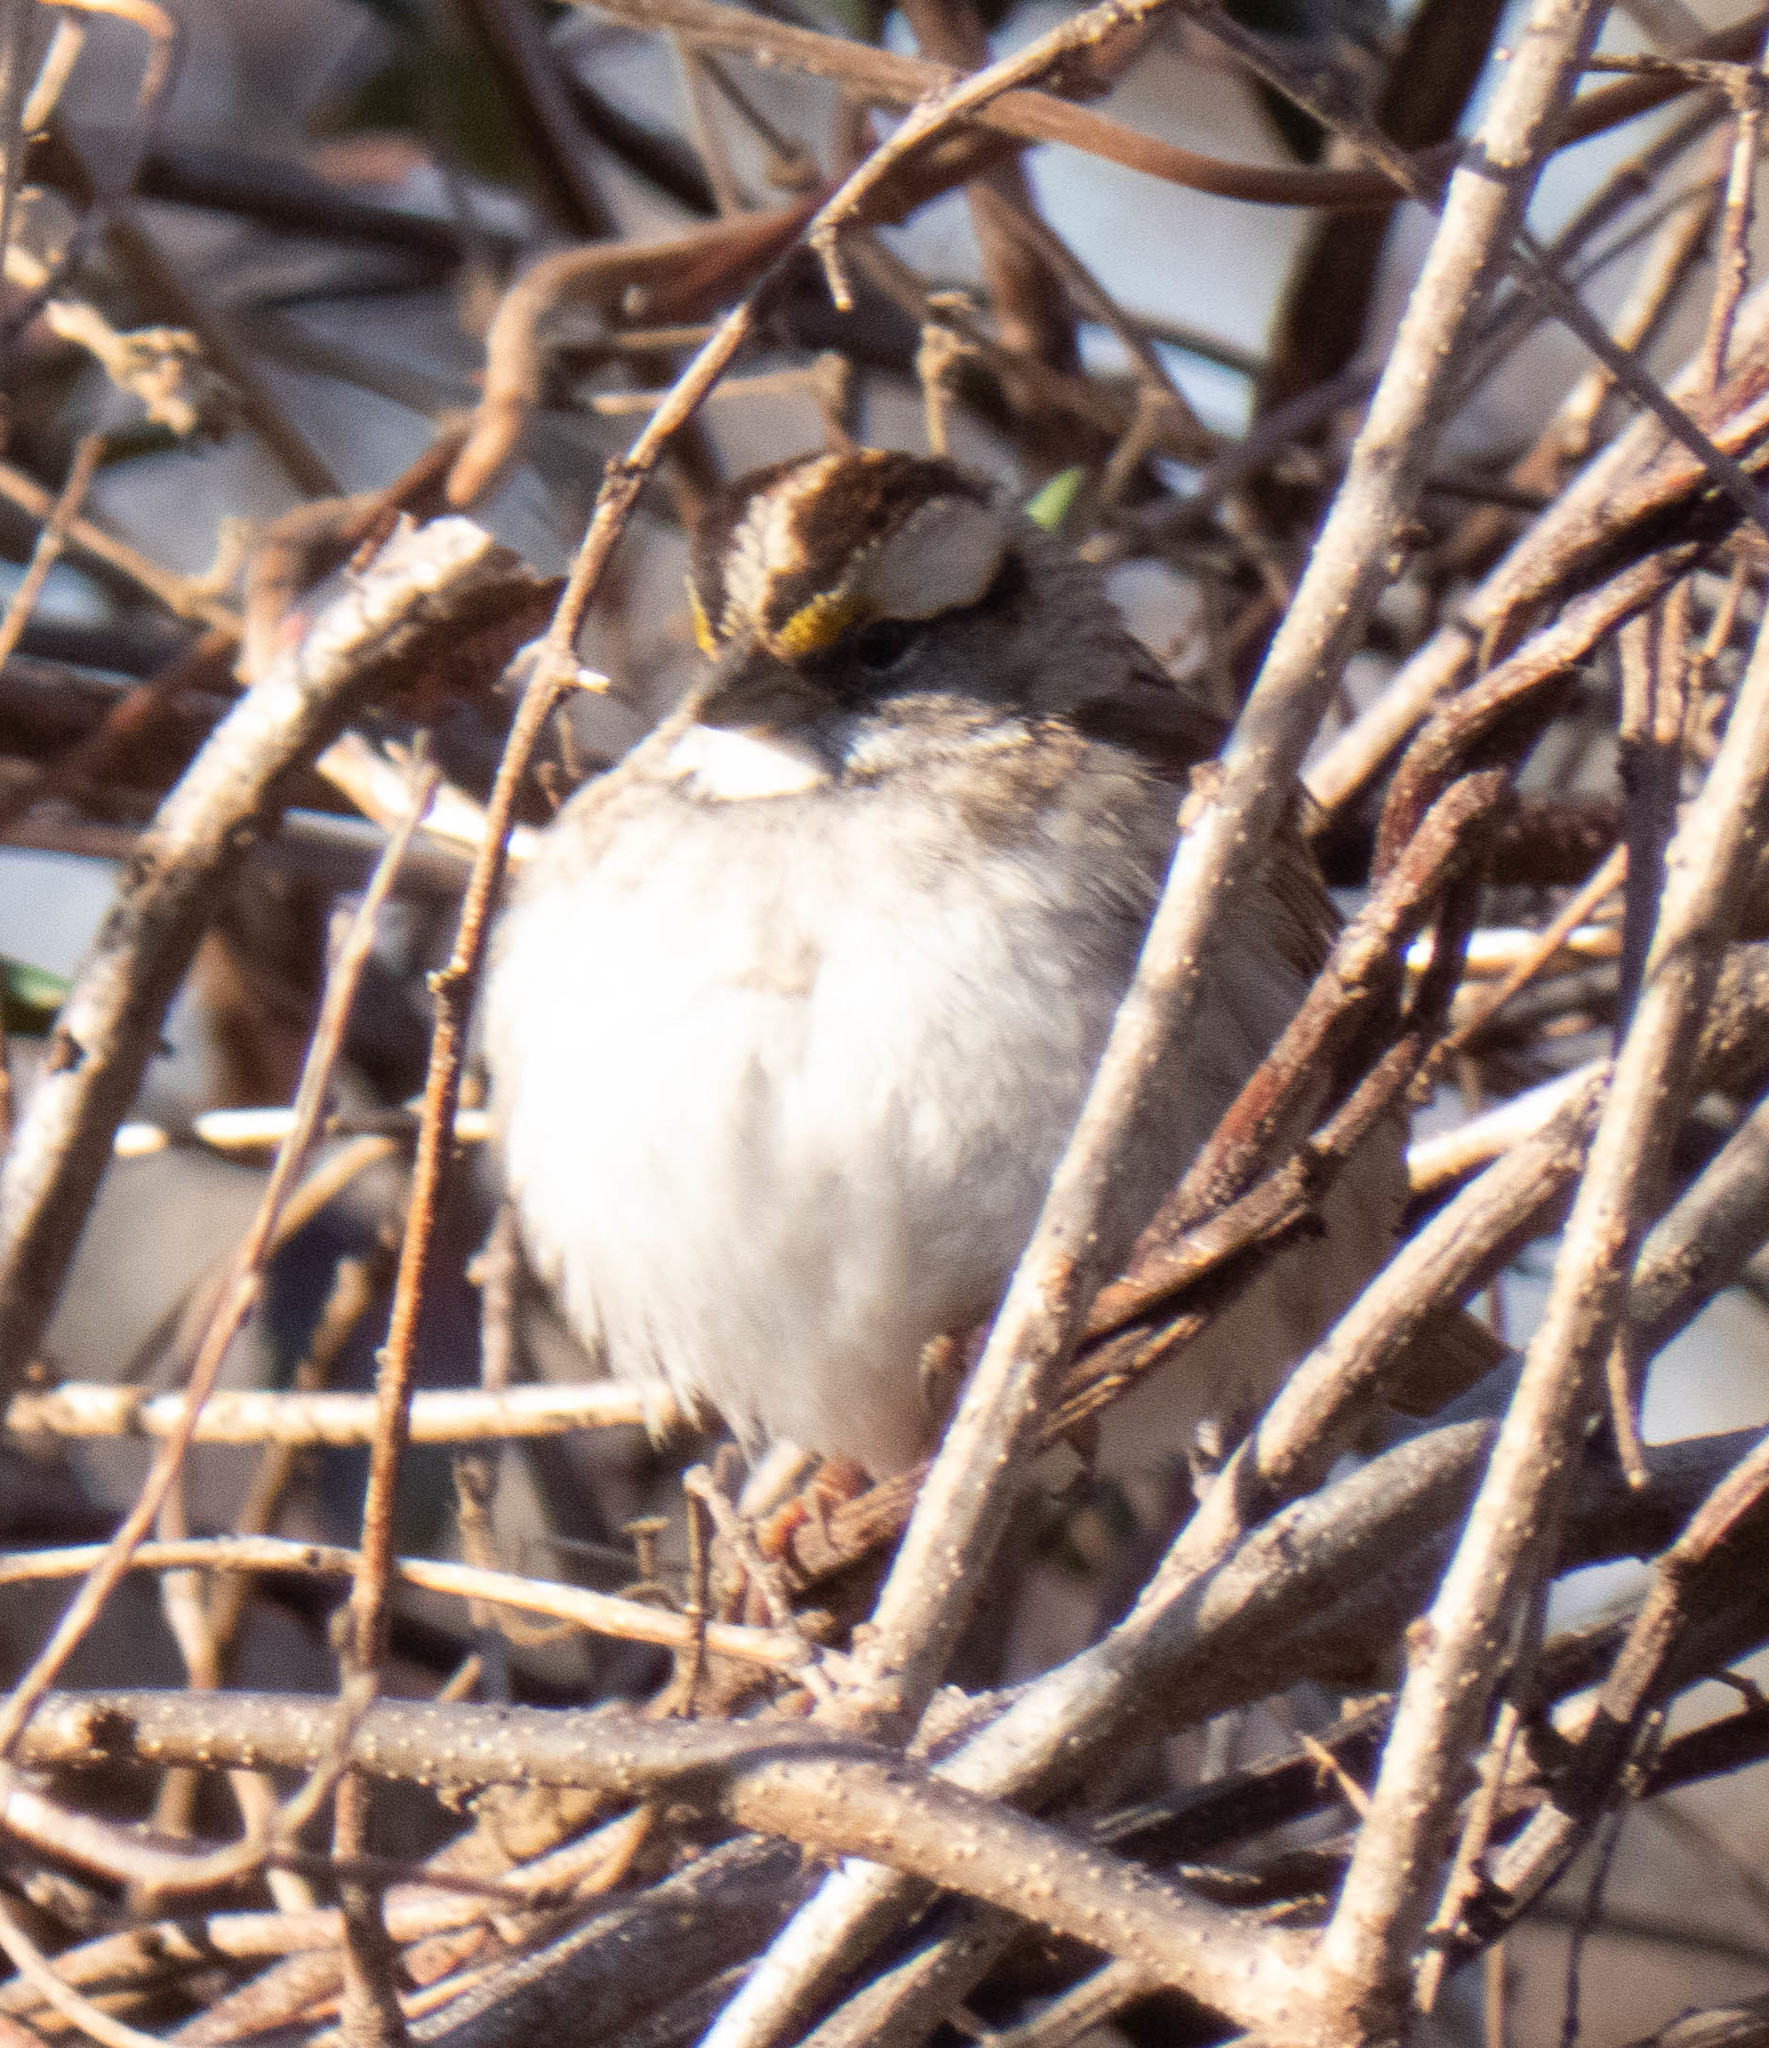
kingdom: Animalia
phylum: Chordata
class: Aves
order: Passeriformes
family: Passerellidae
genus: Zonotrichia
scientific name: Zonotrichia albicollis
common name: White-throated sparrow
